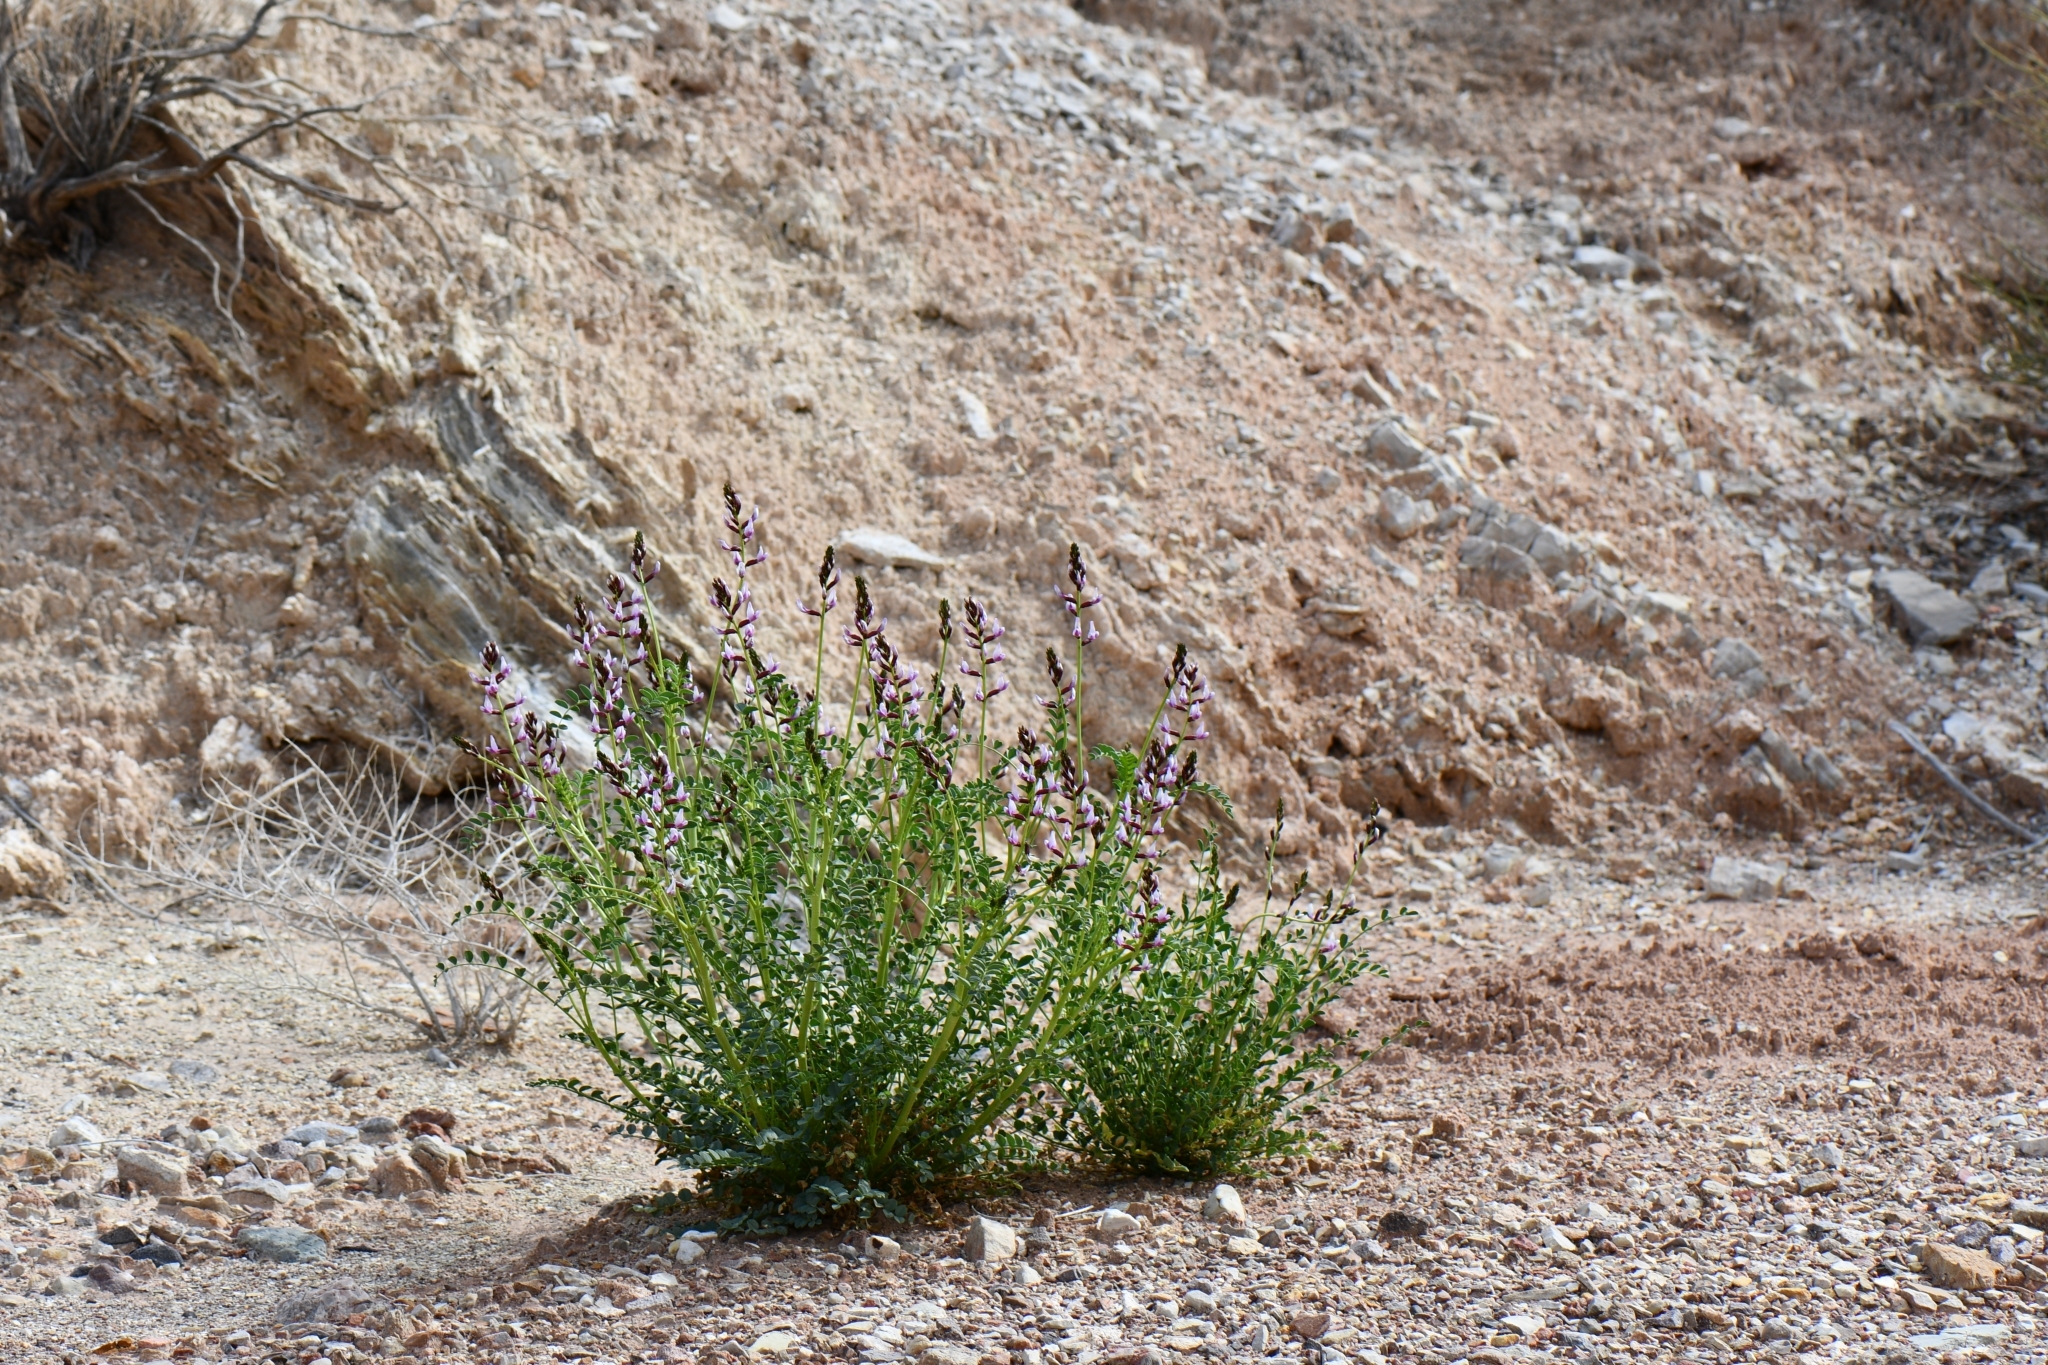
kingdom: Plantae
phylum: Tracheophyta
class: Magnoliopsida
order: Fabales
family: Fabaceae
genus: Astragalus
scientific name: Astragalus preussii
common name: Preuss's milk-vetch
